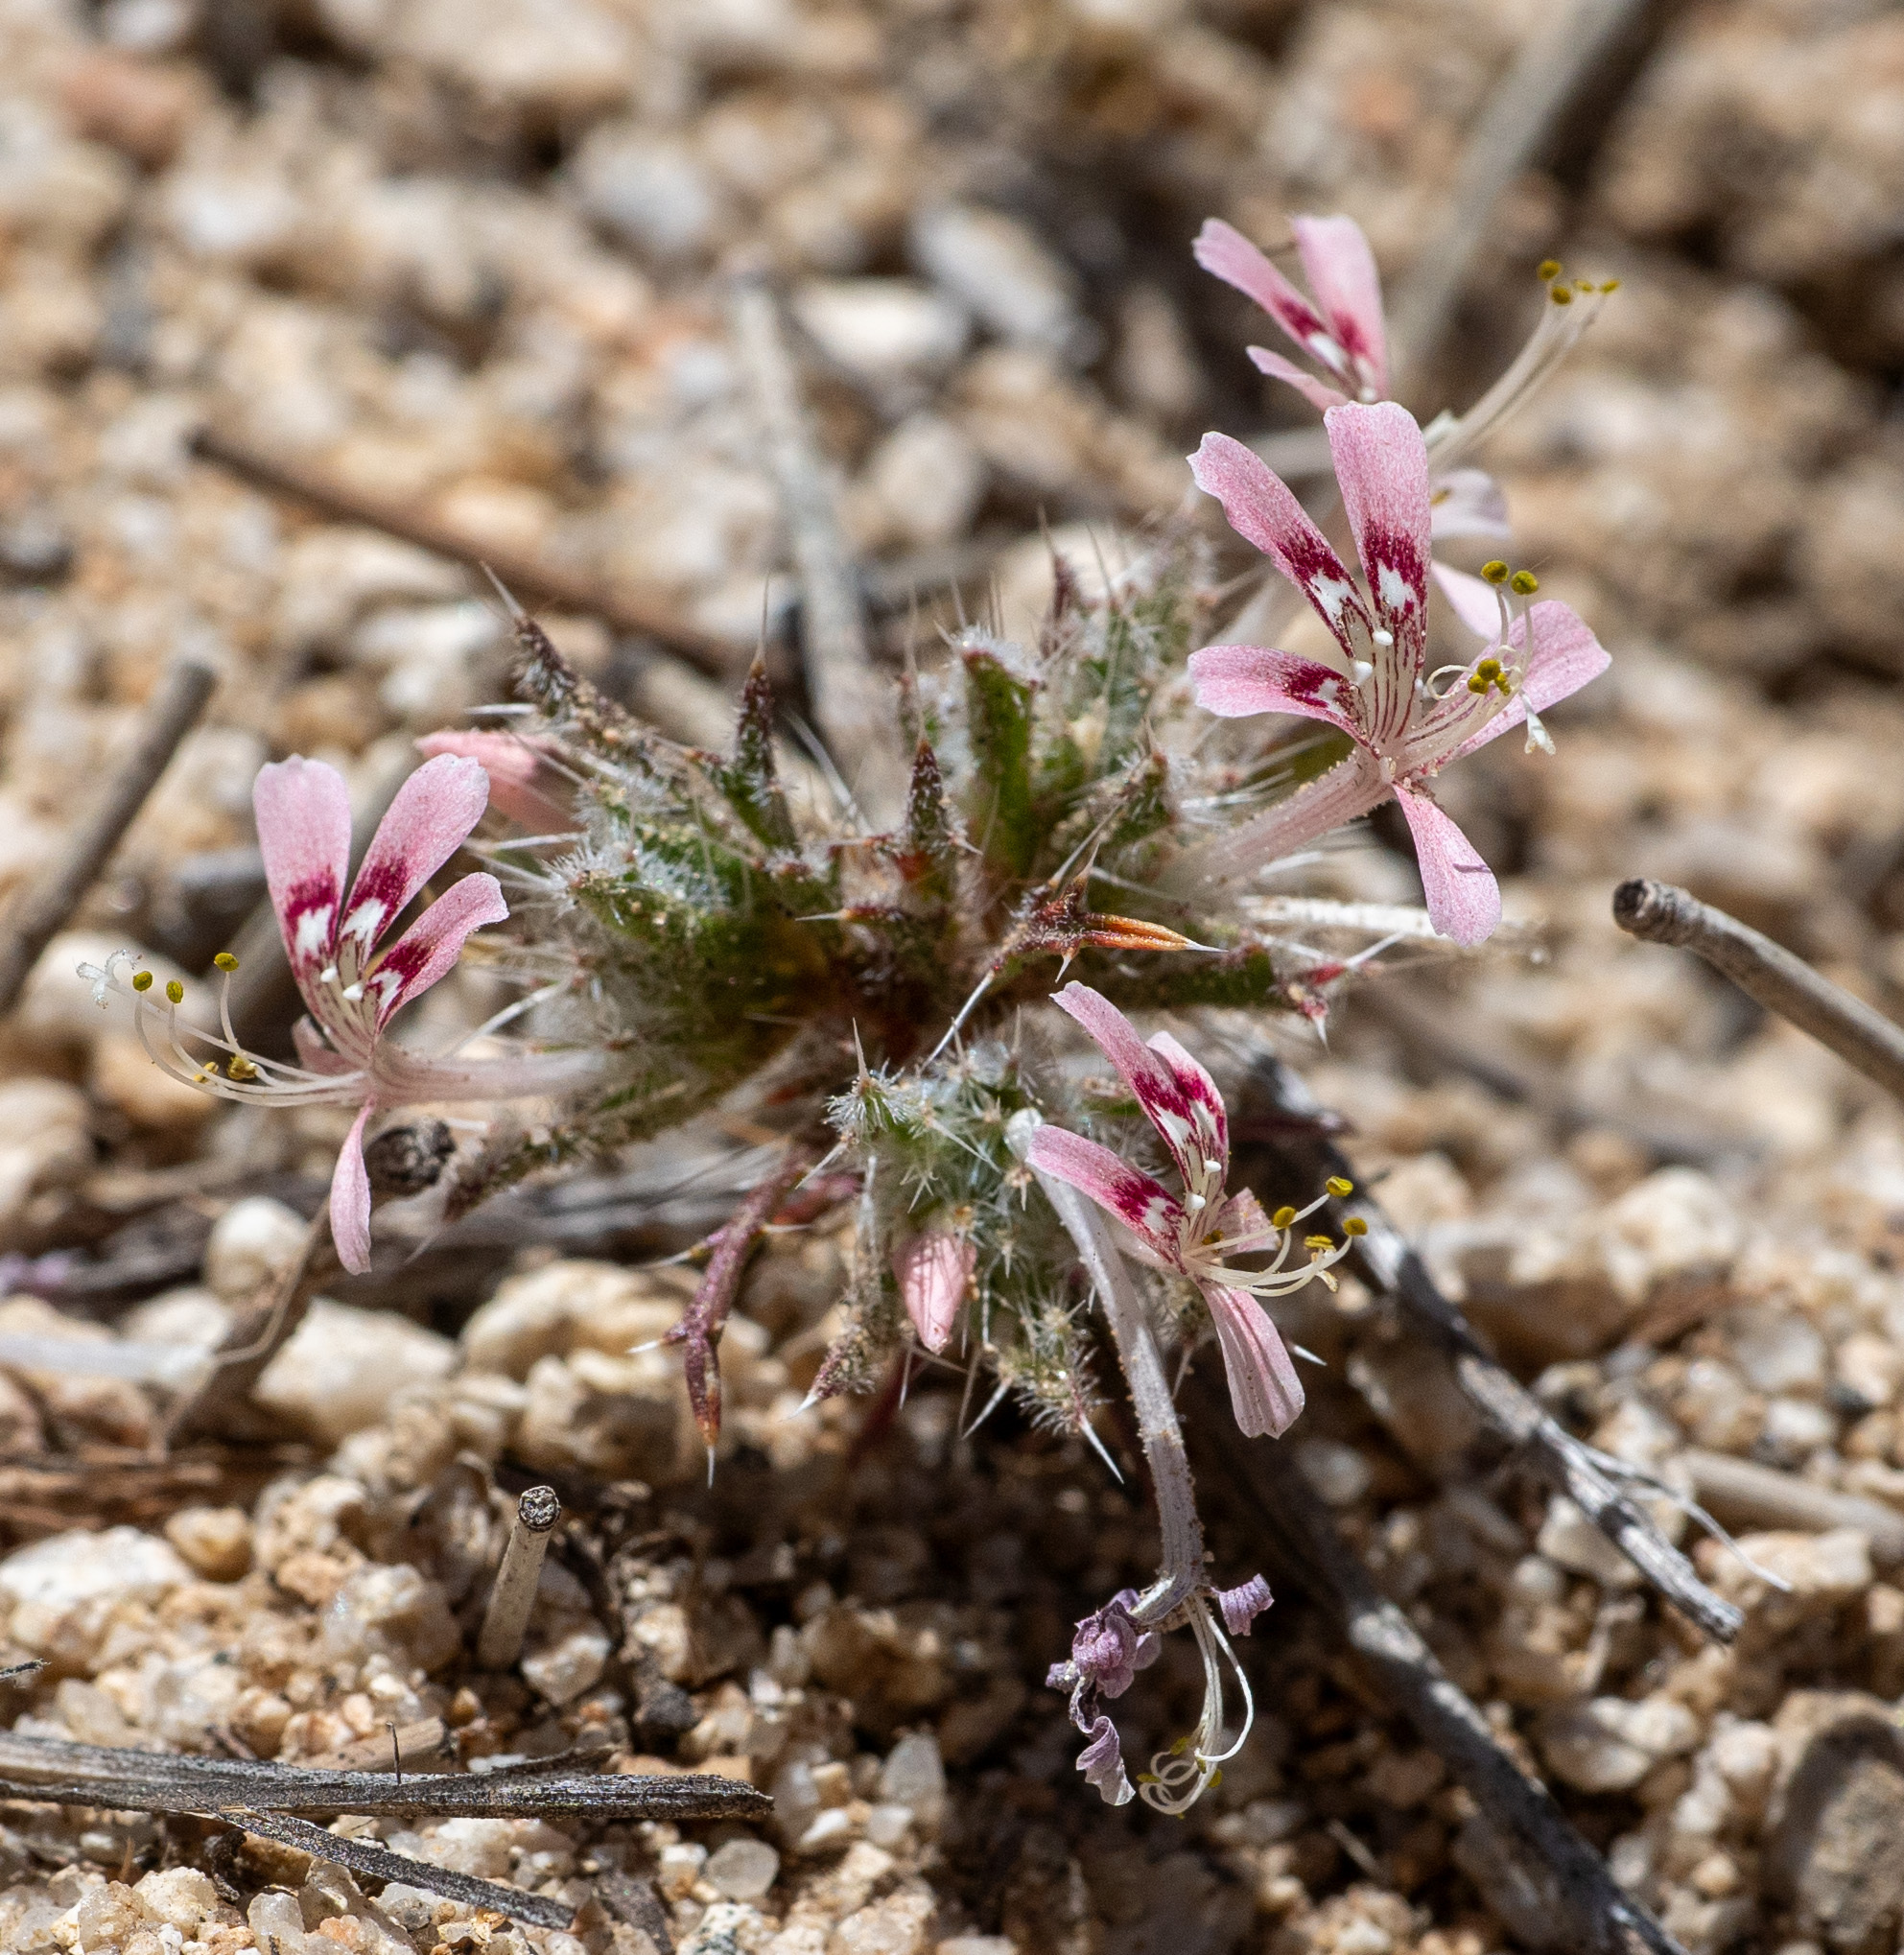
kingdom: Plantae
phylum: Tracheophyta
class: Magnoliopsida
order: Ericales
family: Polemoniaceae
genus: Loeseliastrum
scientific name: Loeseliastrum matthewsii
